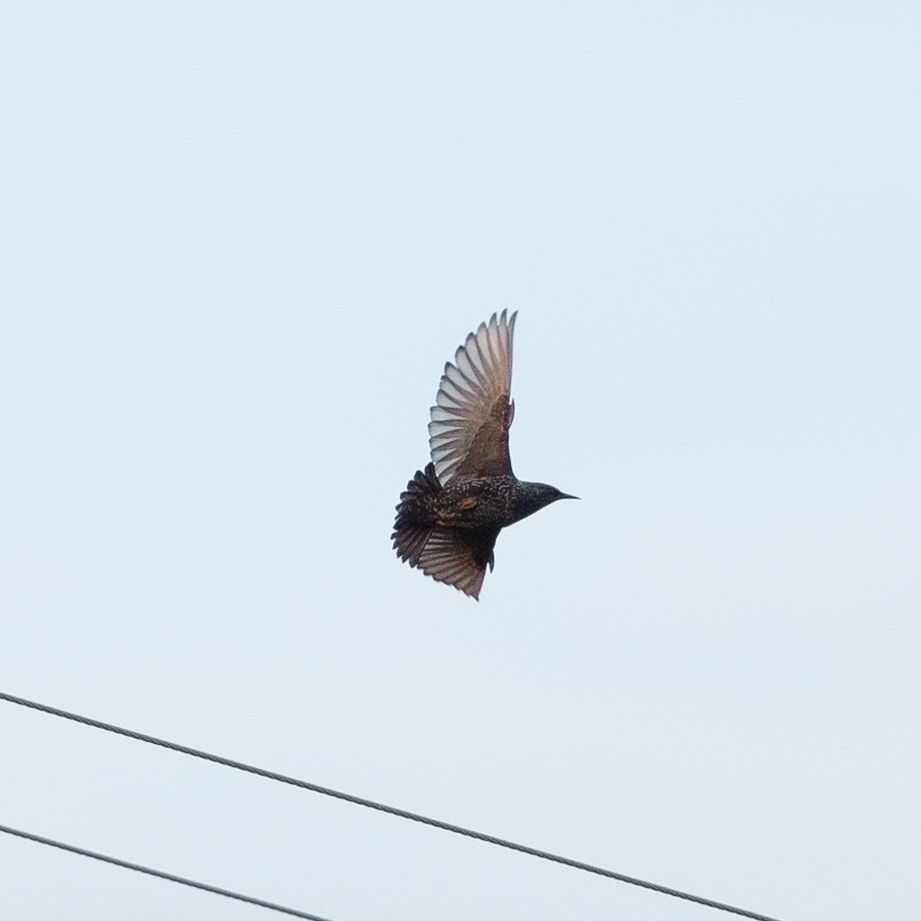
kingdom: Animalia
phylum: Chordata
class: Aves
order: Passeriformes
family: Sturnidae
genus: Sturnus
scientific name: Sturnus vulgaris
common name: Common starling
